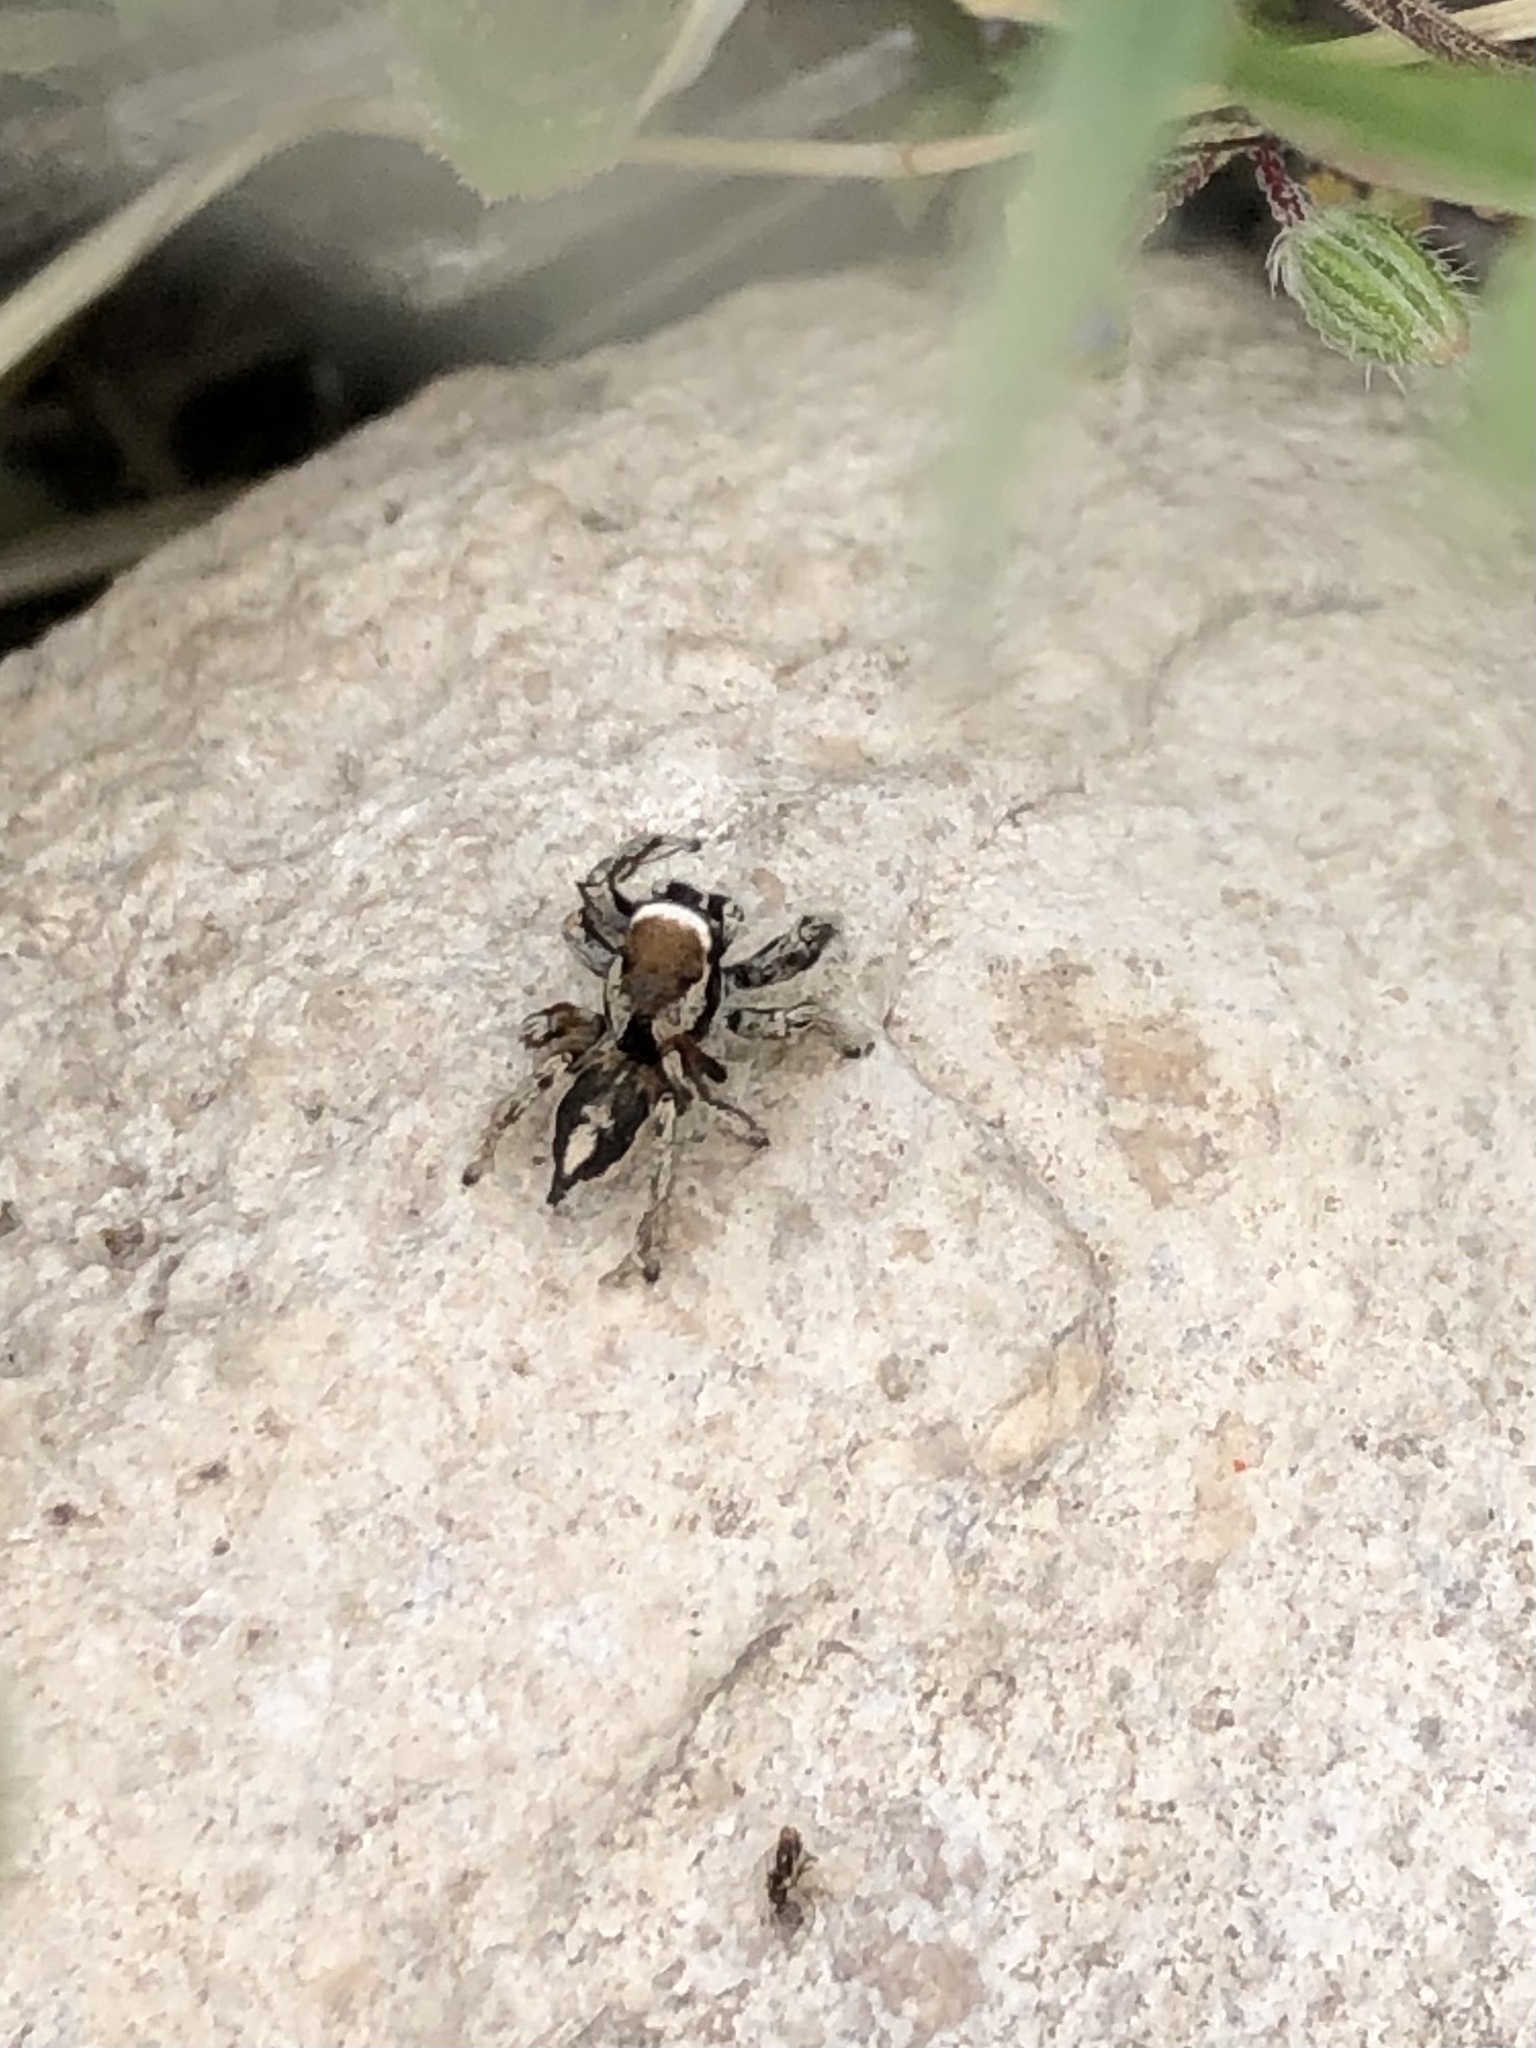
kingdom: Animalia
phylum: Arthropoda
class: Arachnida
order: Araneae
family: Salticidae
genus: Habronattus
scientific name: Habronattus clypeatus
